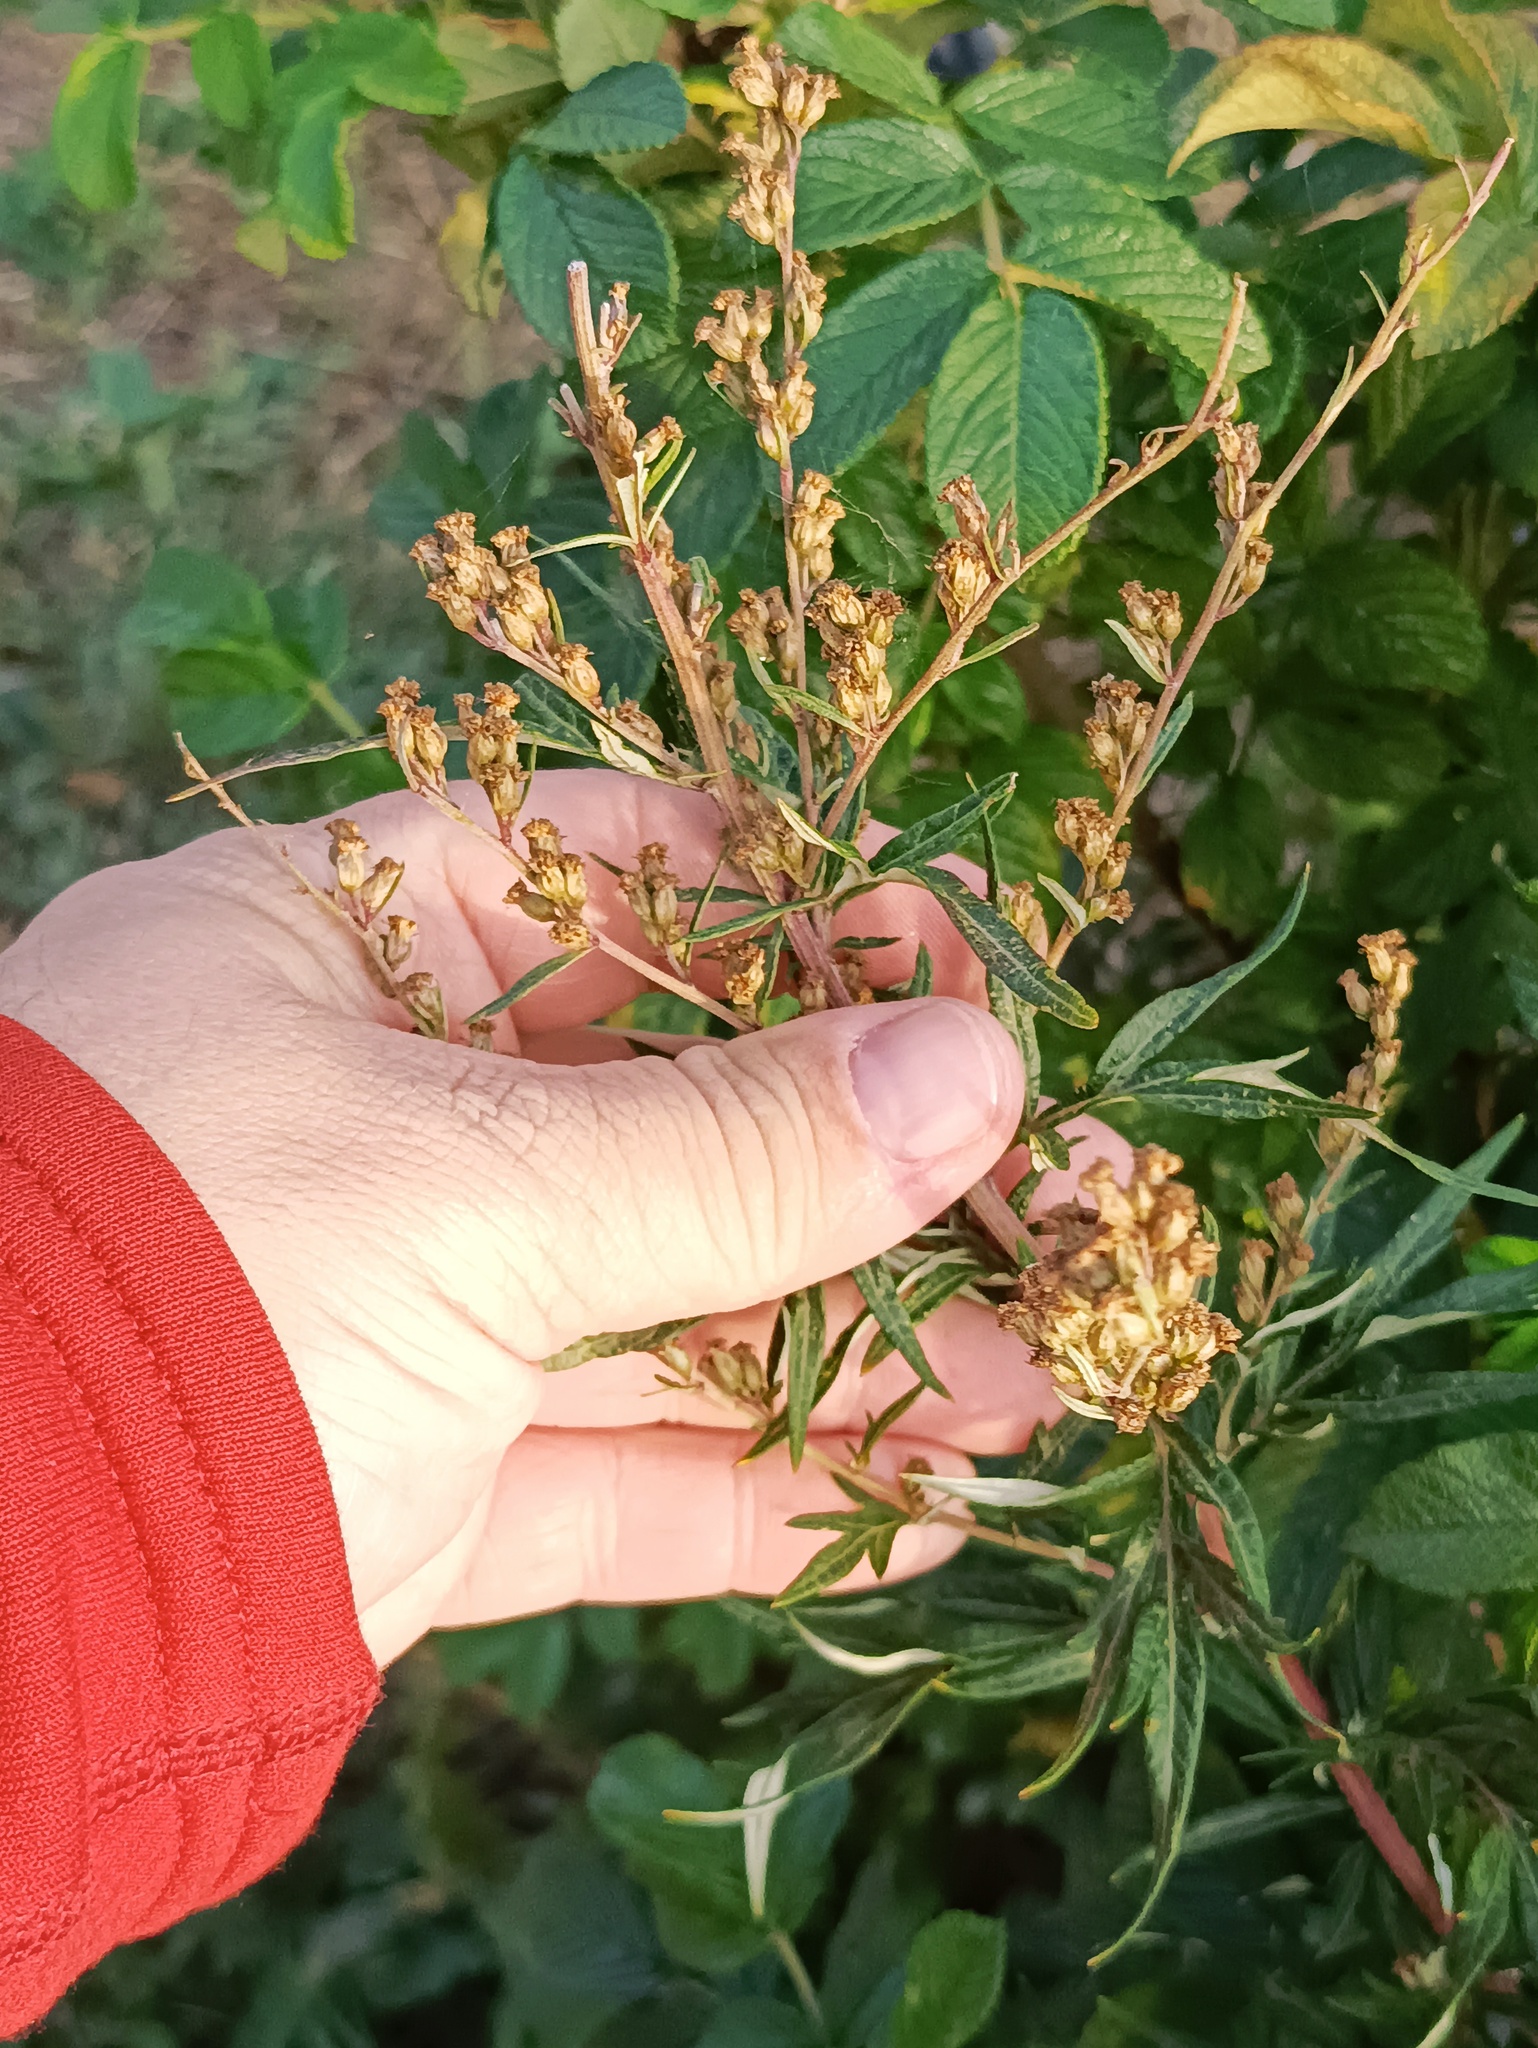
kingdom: Plantae
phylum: Tracheophyta
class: Magnoliopsida
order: Asterales
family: Asteraceae
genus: Artemisia
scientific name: Artemisia vulgaris
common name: Mugwort
